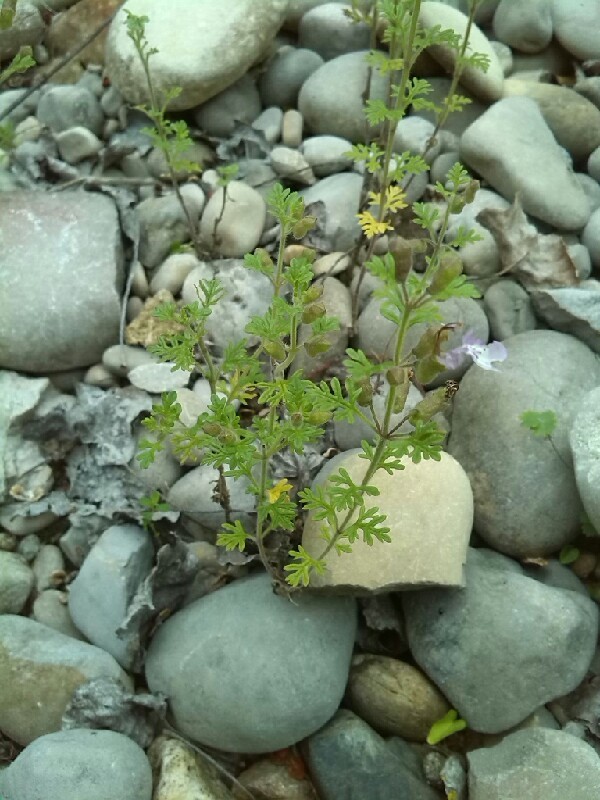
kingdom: Plantae
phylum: Tracheophyta
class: Magnoliopsida
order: Lamiales
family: Lamiaceae
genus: Teucrium
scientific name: Teucrium botrys
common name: Cut-leaved germander
